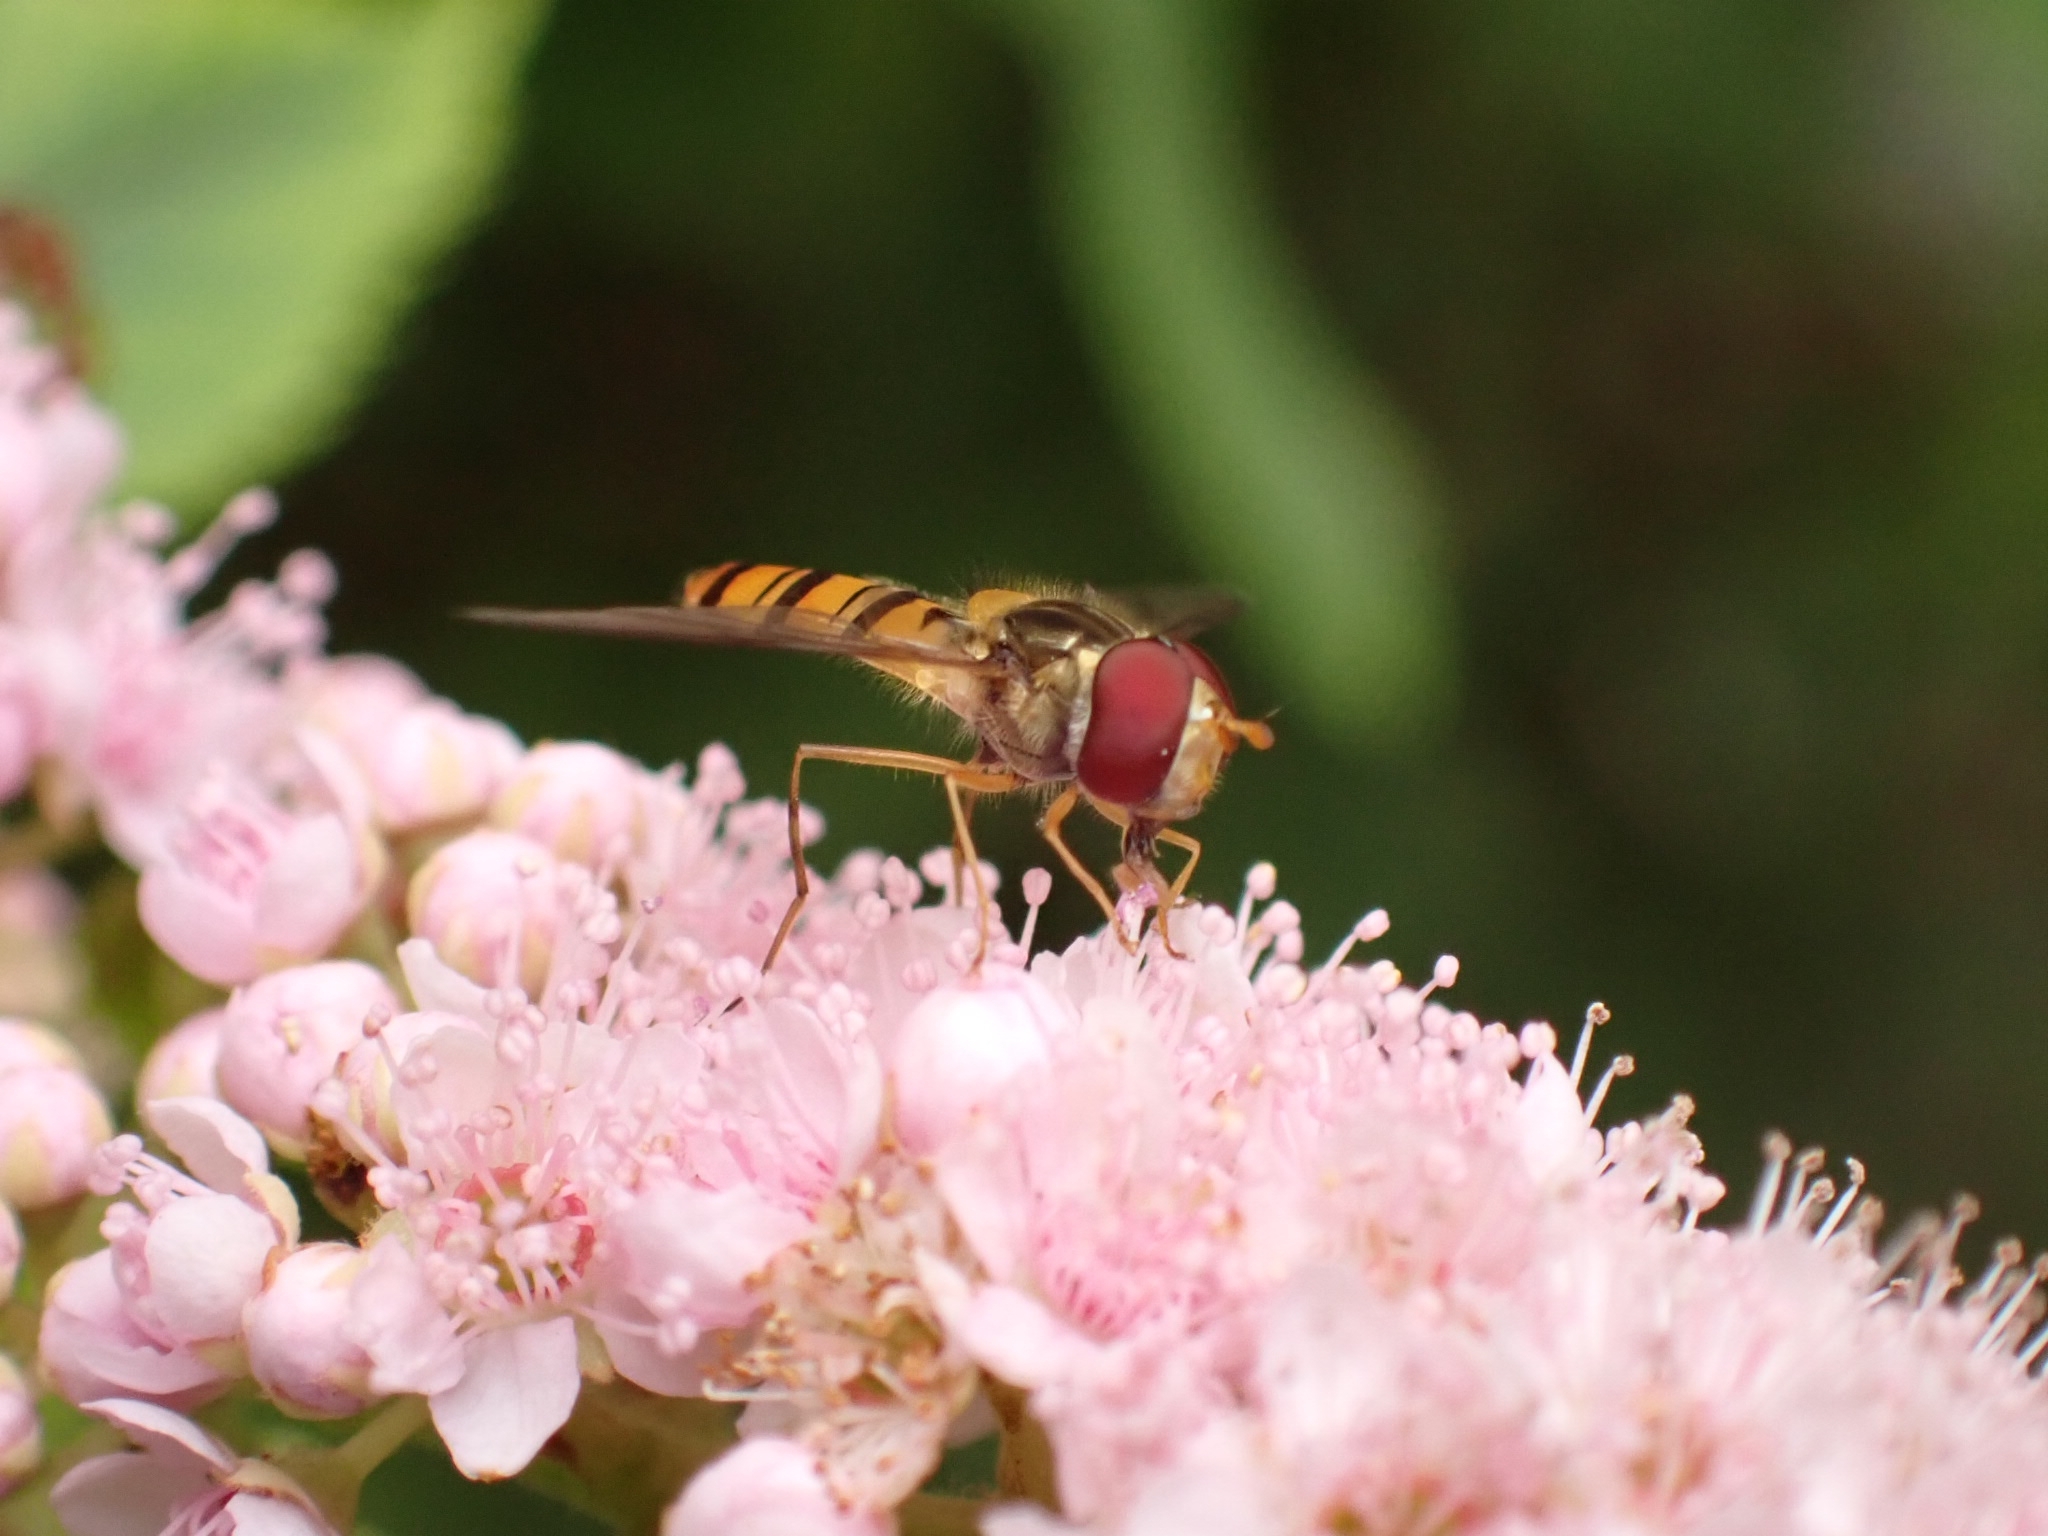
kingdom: Animalia
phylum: Arthropoda
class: Insecta
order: Diptera
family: Syrphidae
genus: Episyrphus
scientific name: Episyrphus balteatus
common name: Marmalade hoverfly
